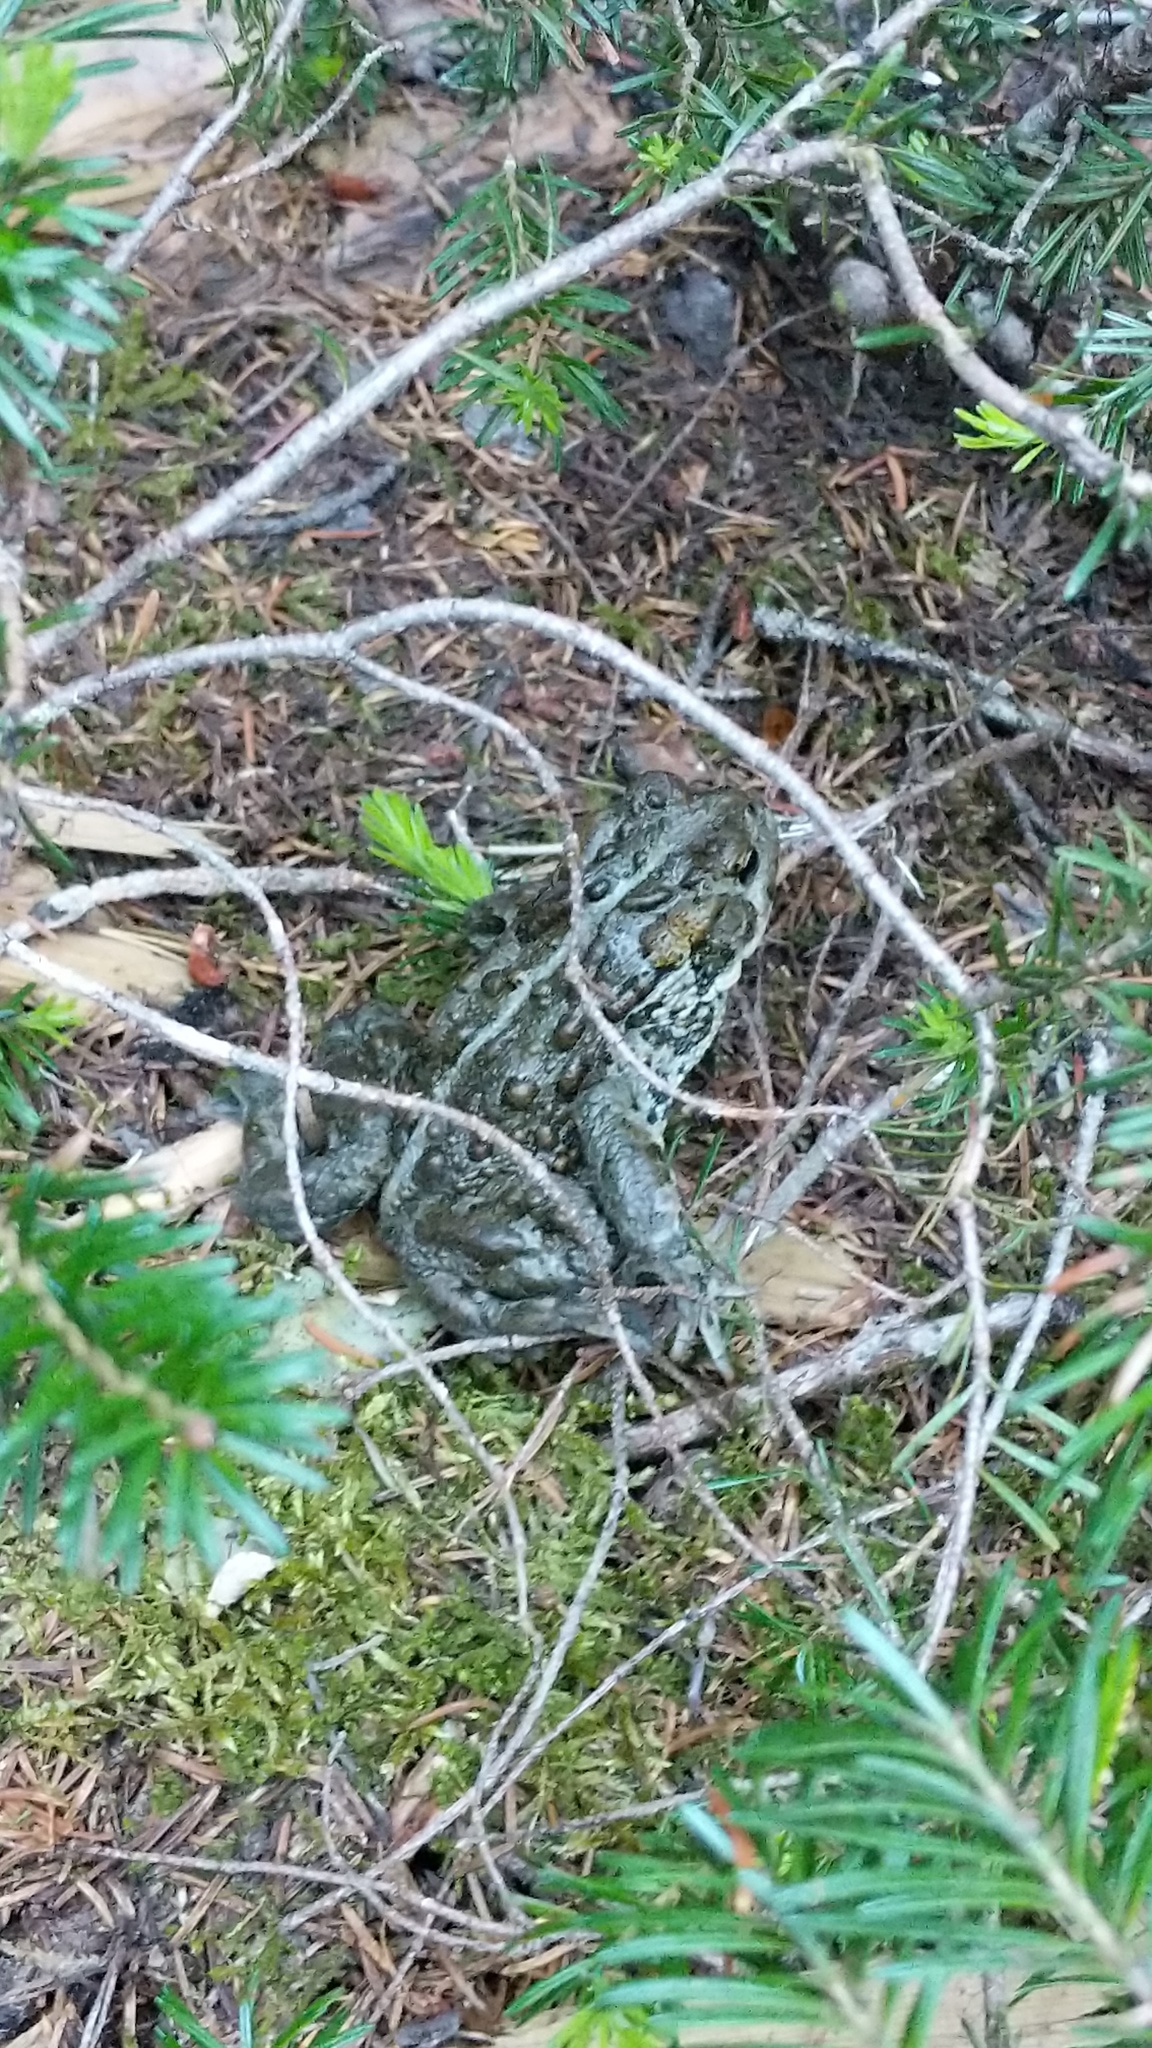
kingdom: Animalia
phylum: Chordata
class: Amphibia
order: Anura
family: Bufonidae
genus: Anaxyrus
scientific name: Anaxyrus boreas
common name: Western toad
